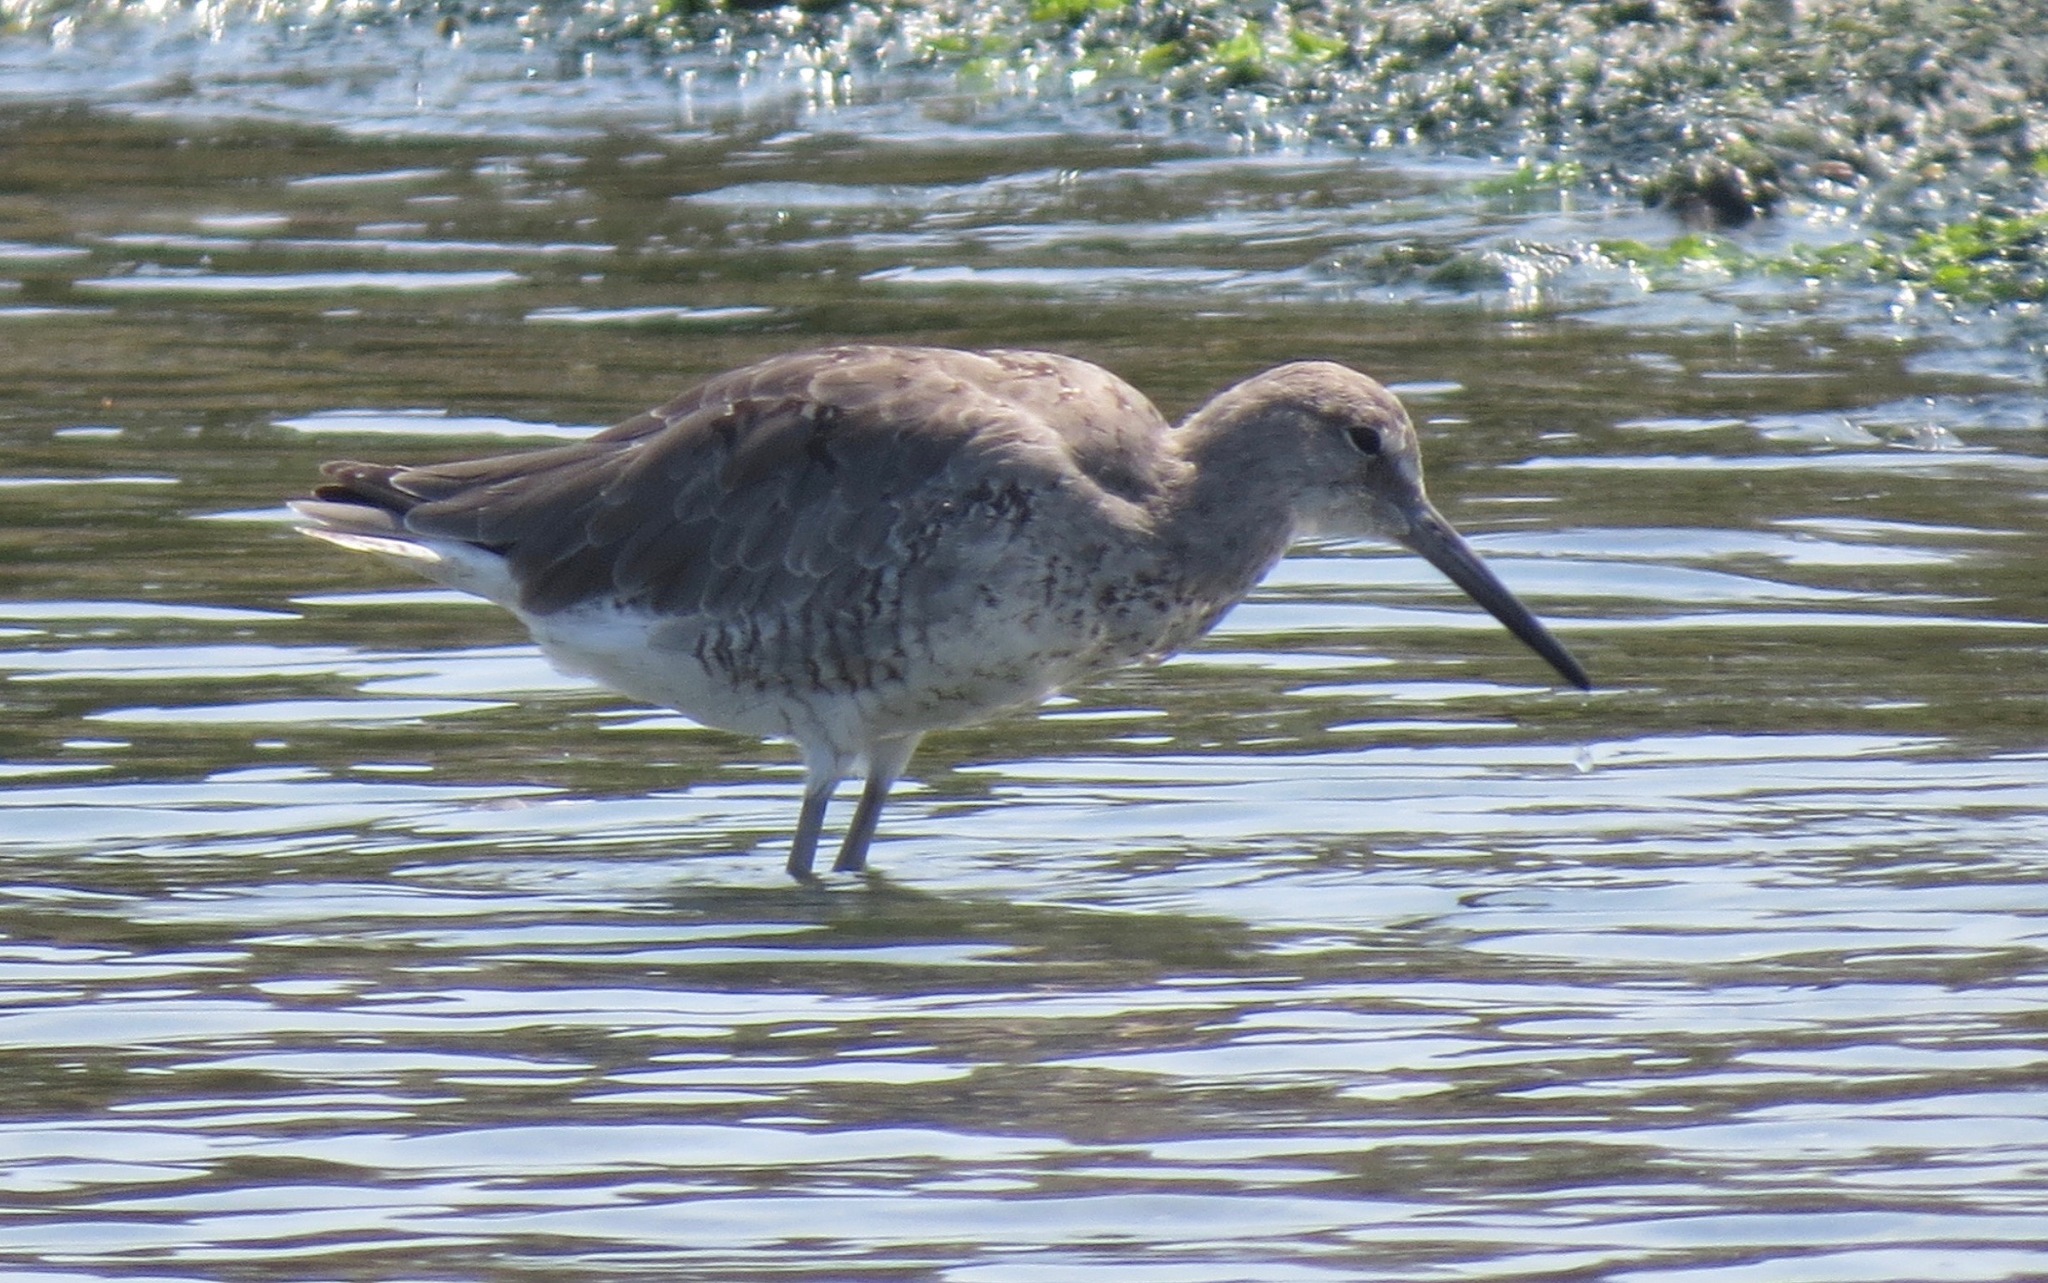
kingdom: Animalia
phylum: Chordata
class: Aves
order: Charadriiformes
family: Scolopacidae
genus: Tringa
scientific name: Tringa semipalmata
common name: Willet
